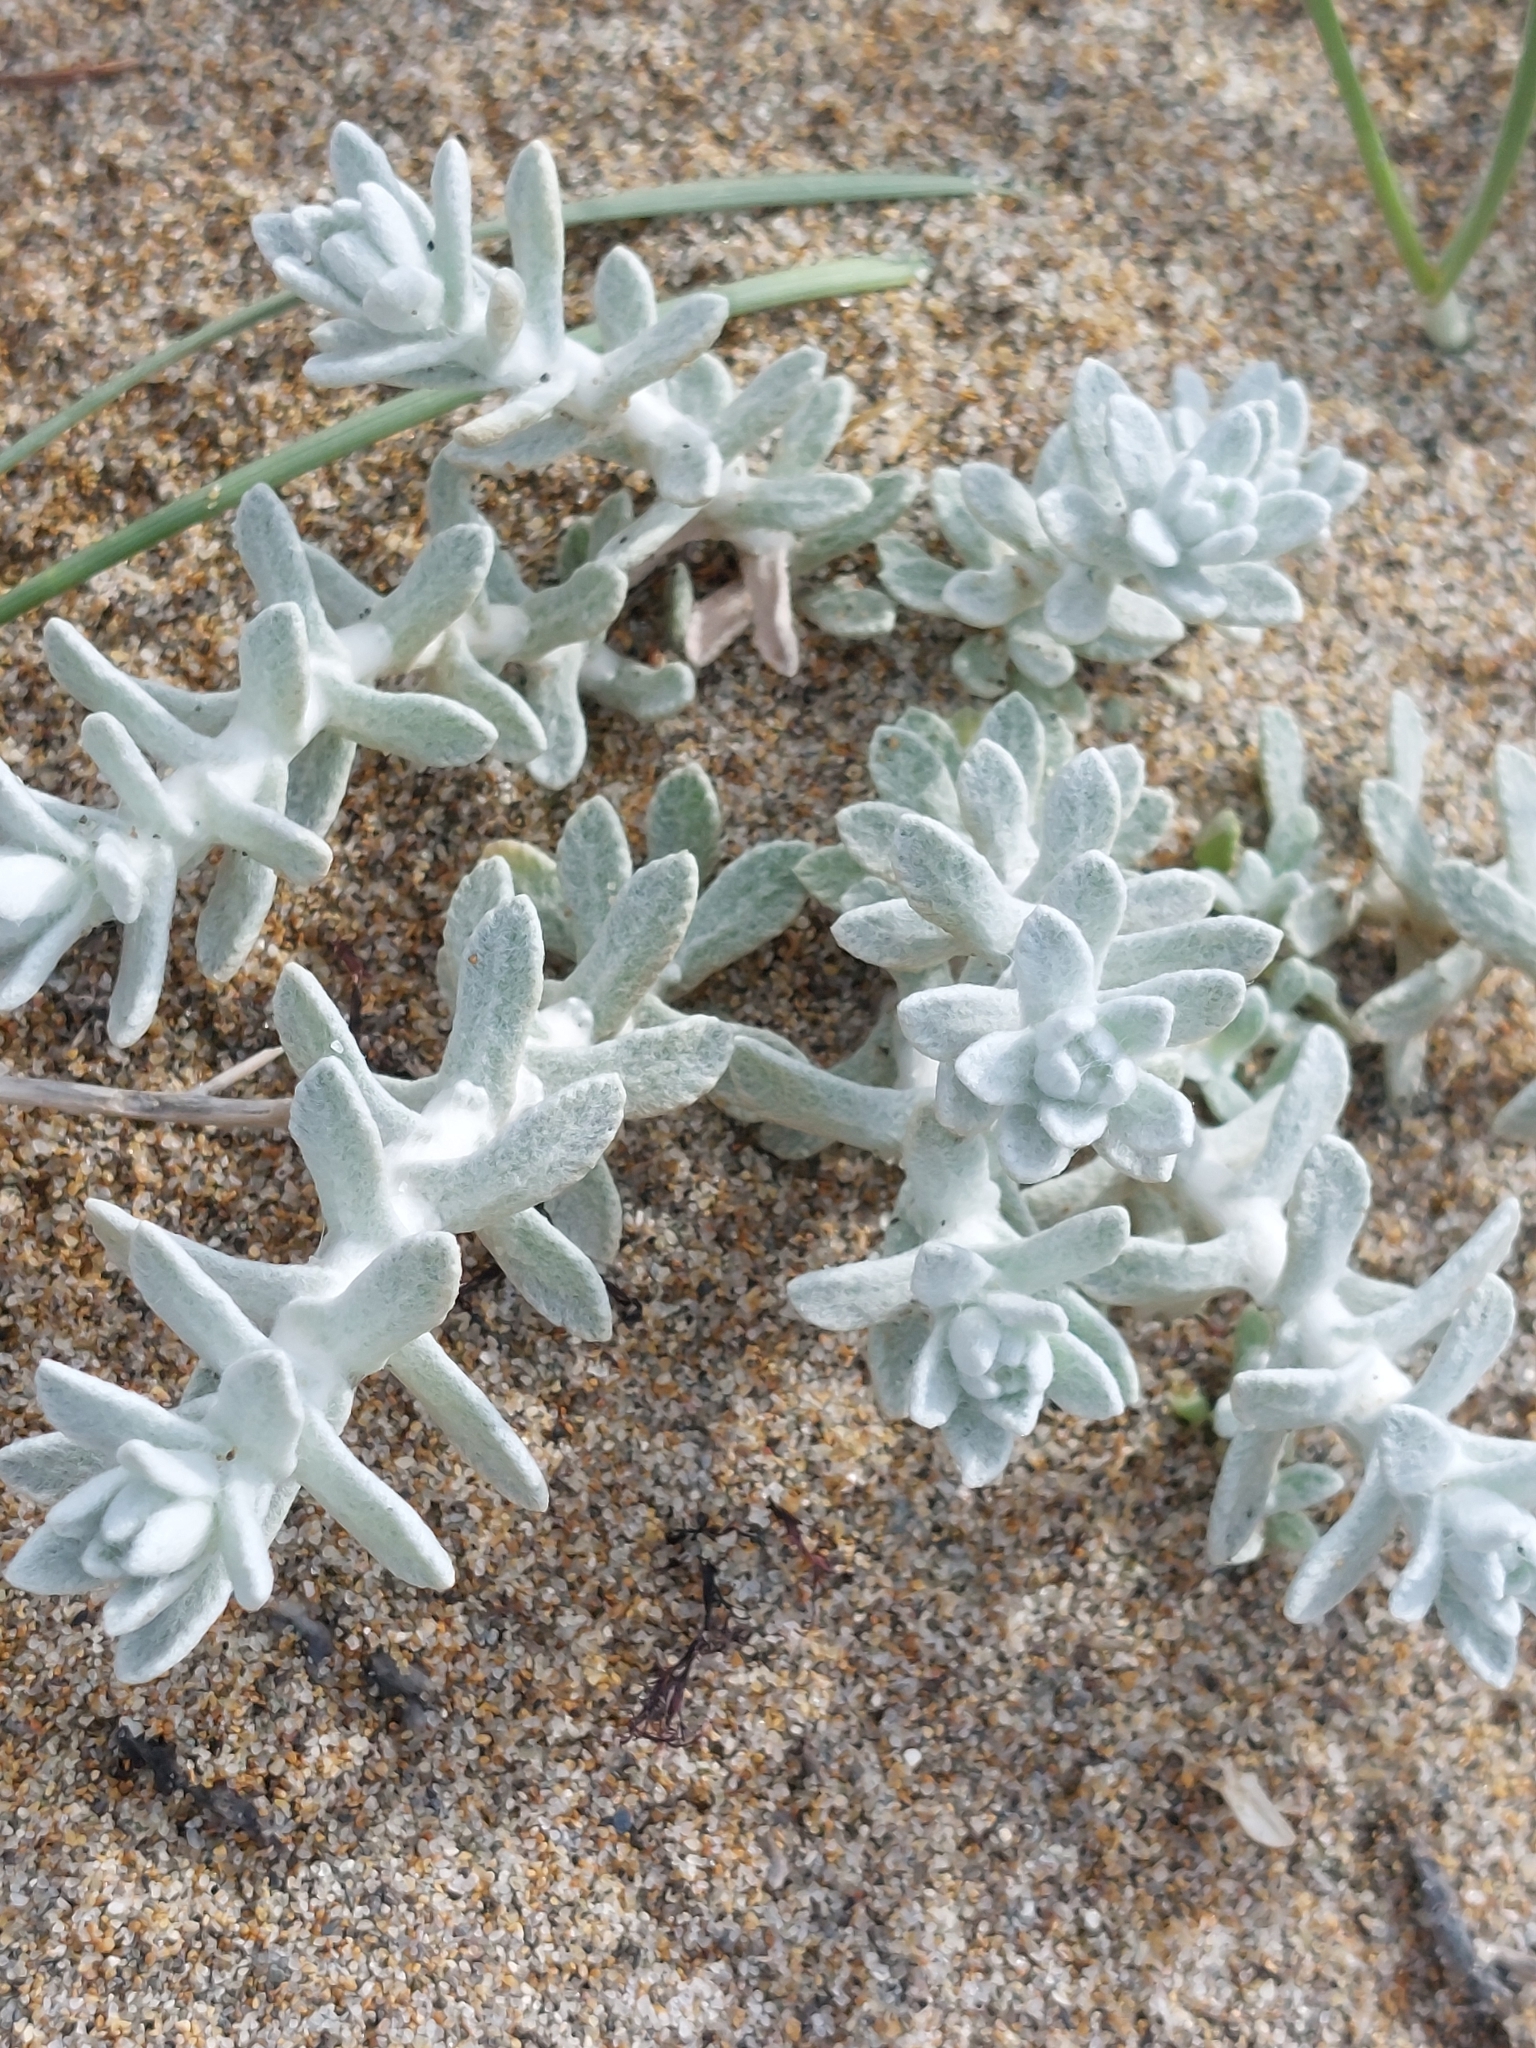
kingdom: Plantae
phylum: Tracheophyta
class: Magnoliopsida
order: Asterales
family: Asteraceae
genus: Achillea
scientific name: Achillea maritima
